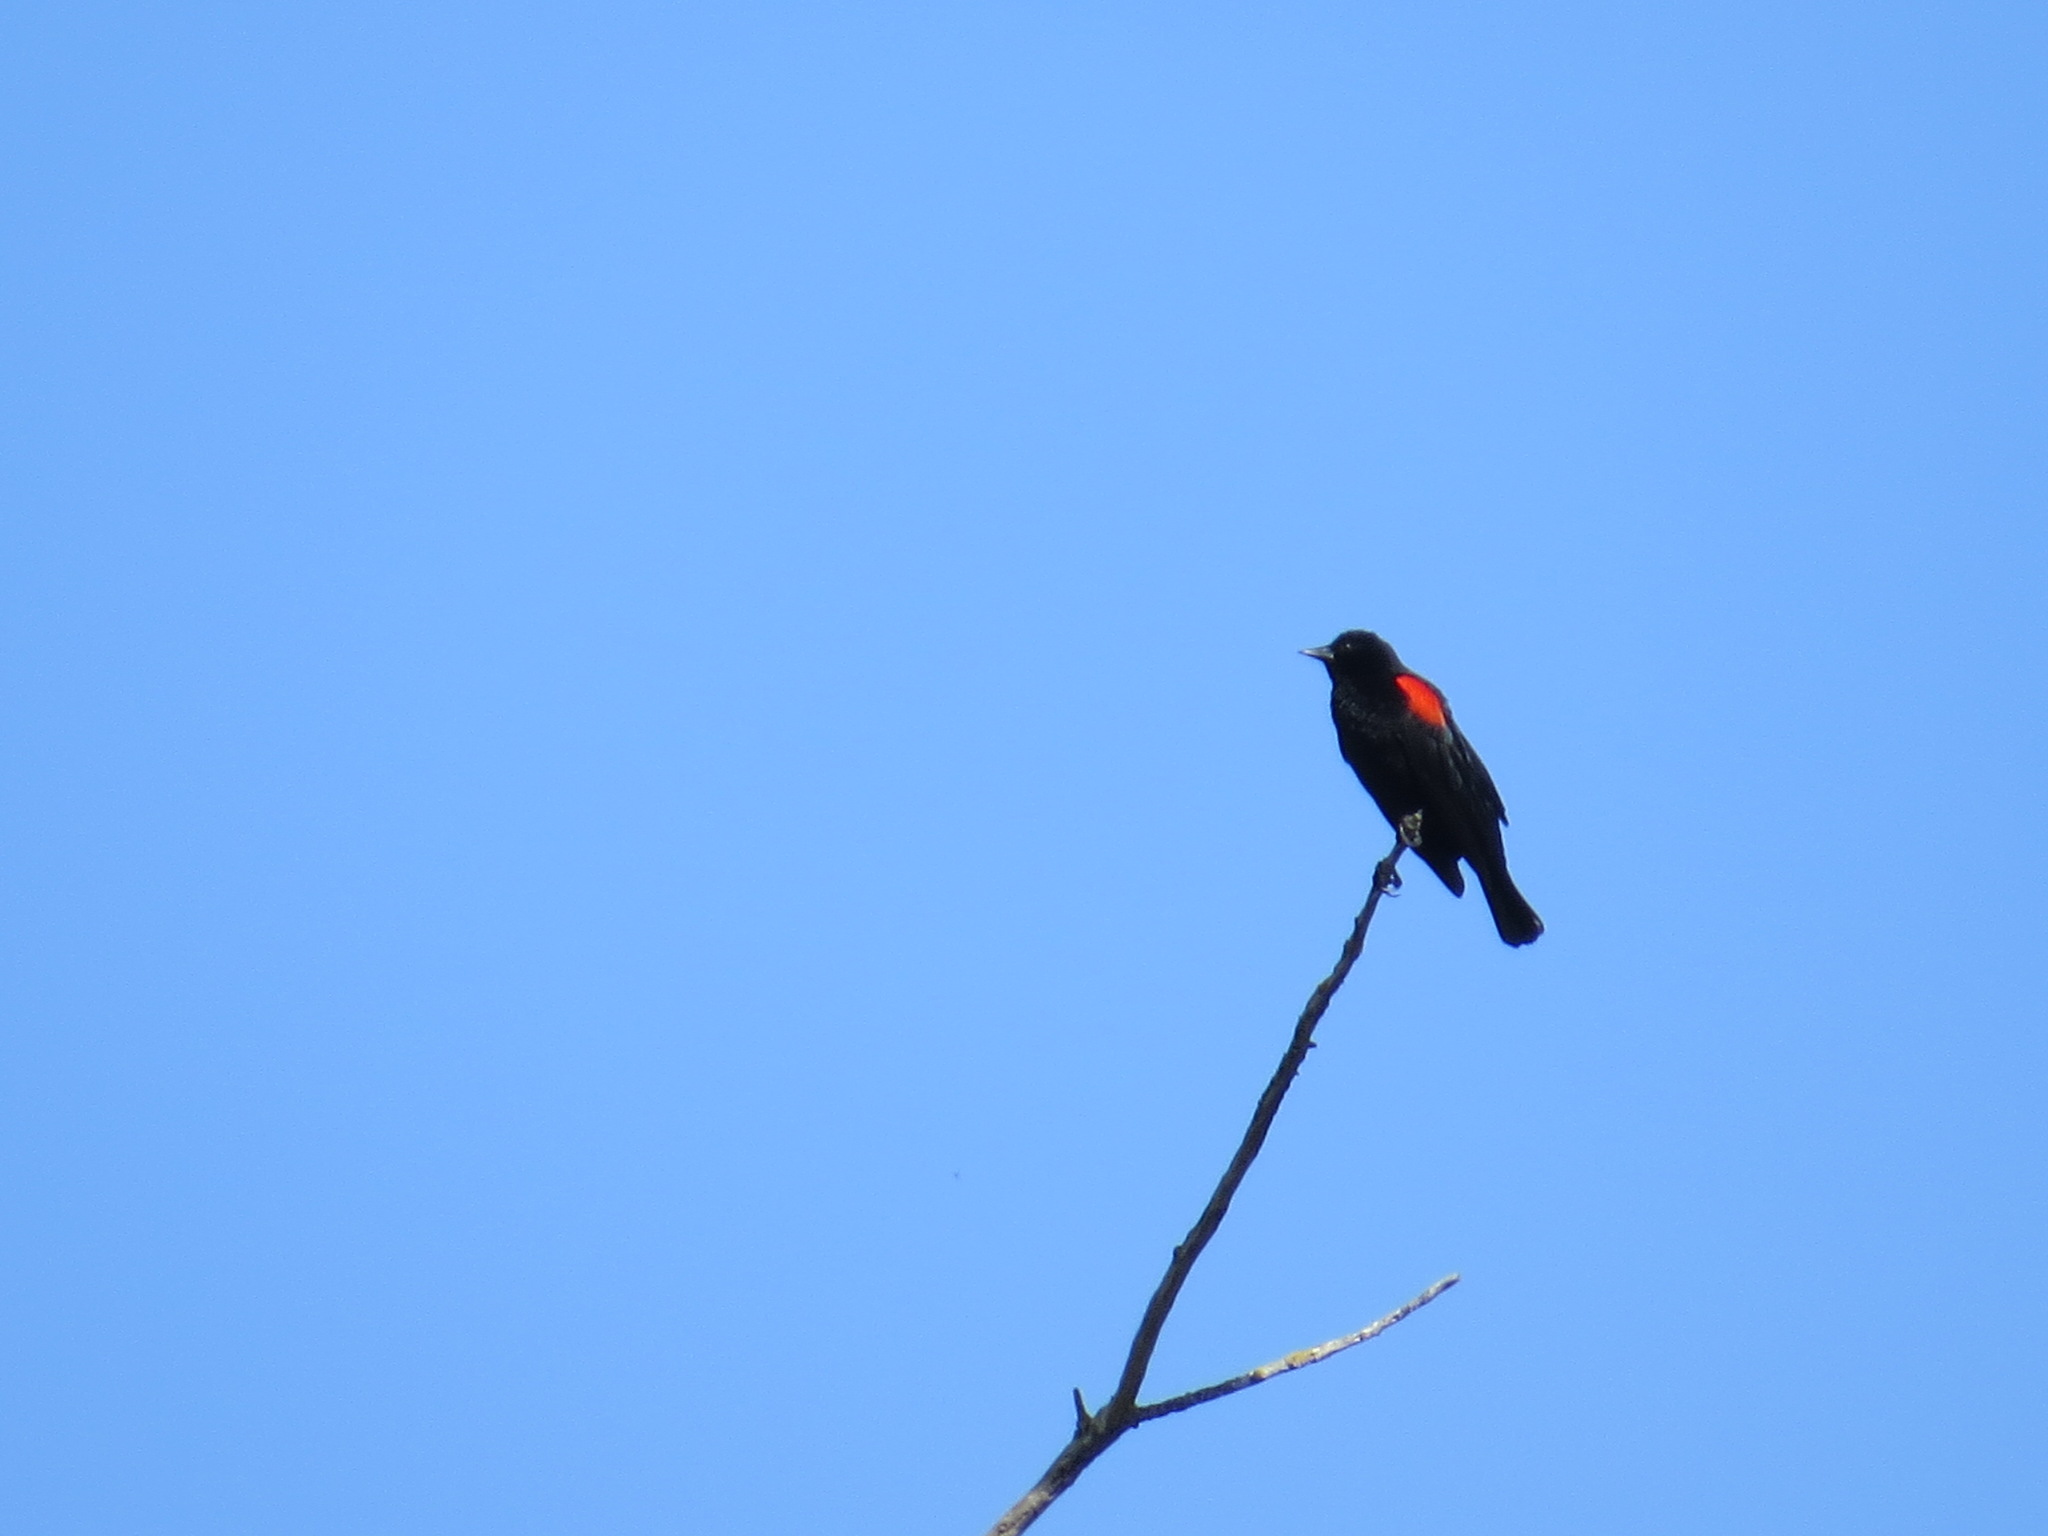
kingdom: Animalia
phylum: Chordata
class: Aves
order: Passeriformes
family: Icteridae
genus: Agelaius
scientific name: Agelaius phoeniceus
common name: Red-winged blackbird
